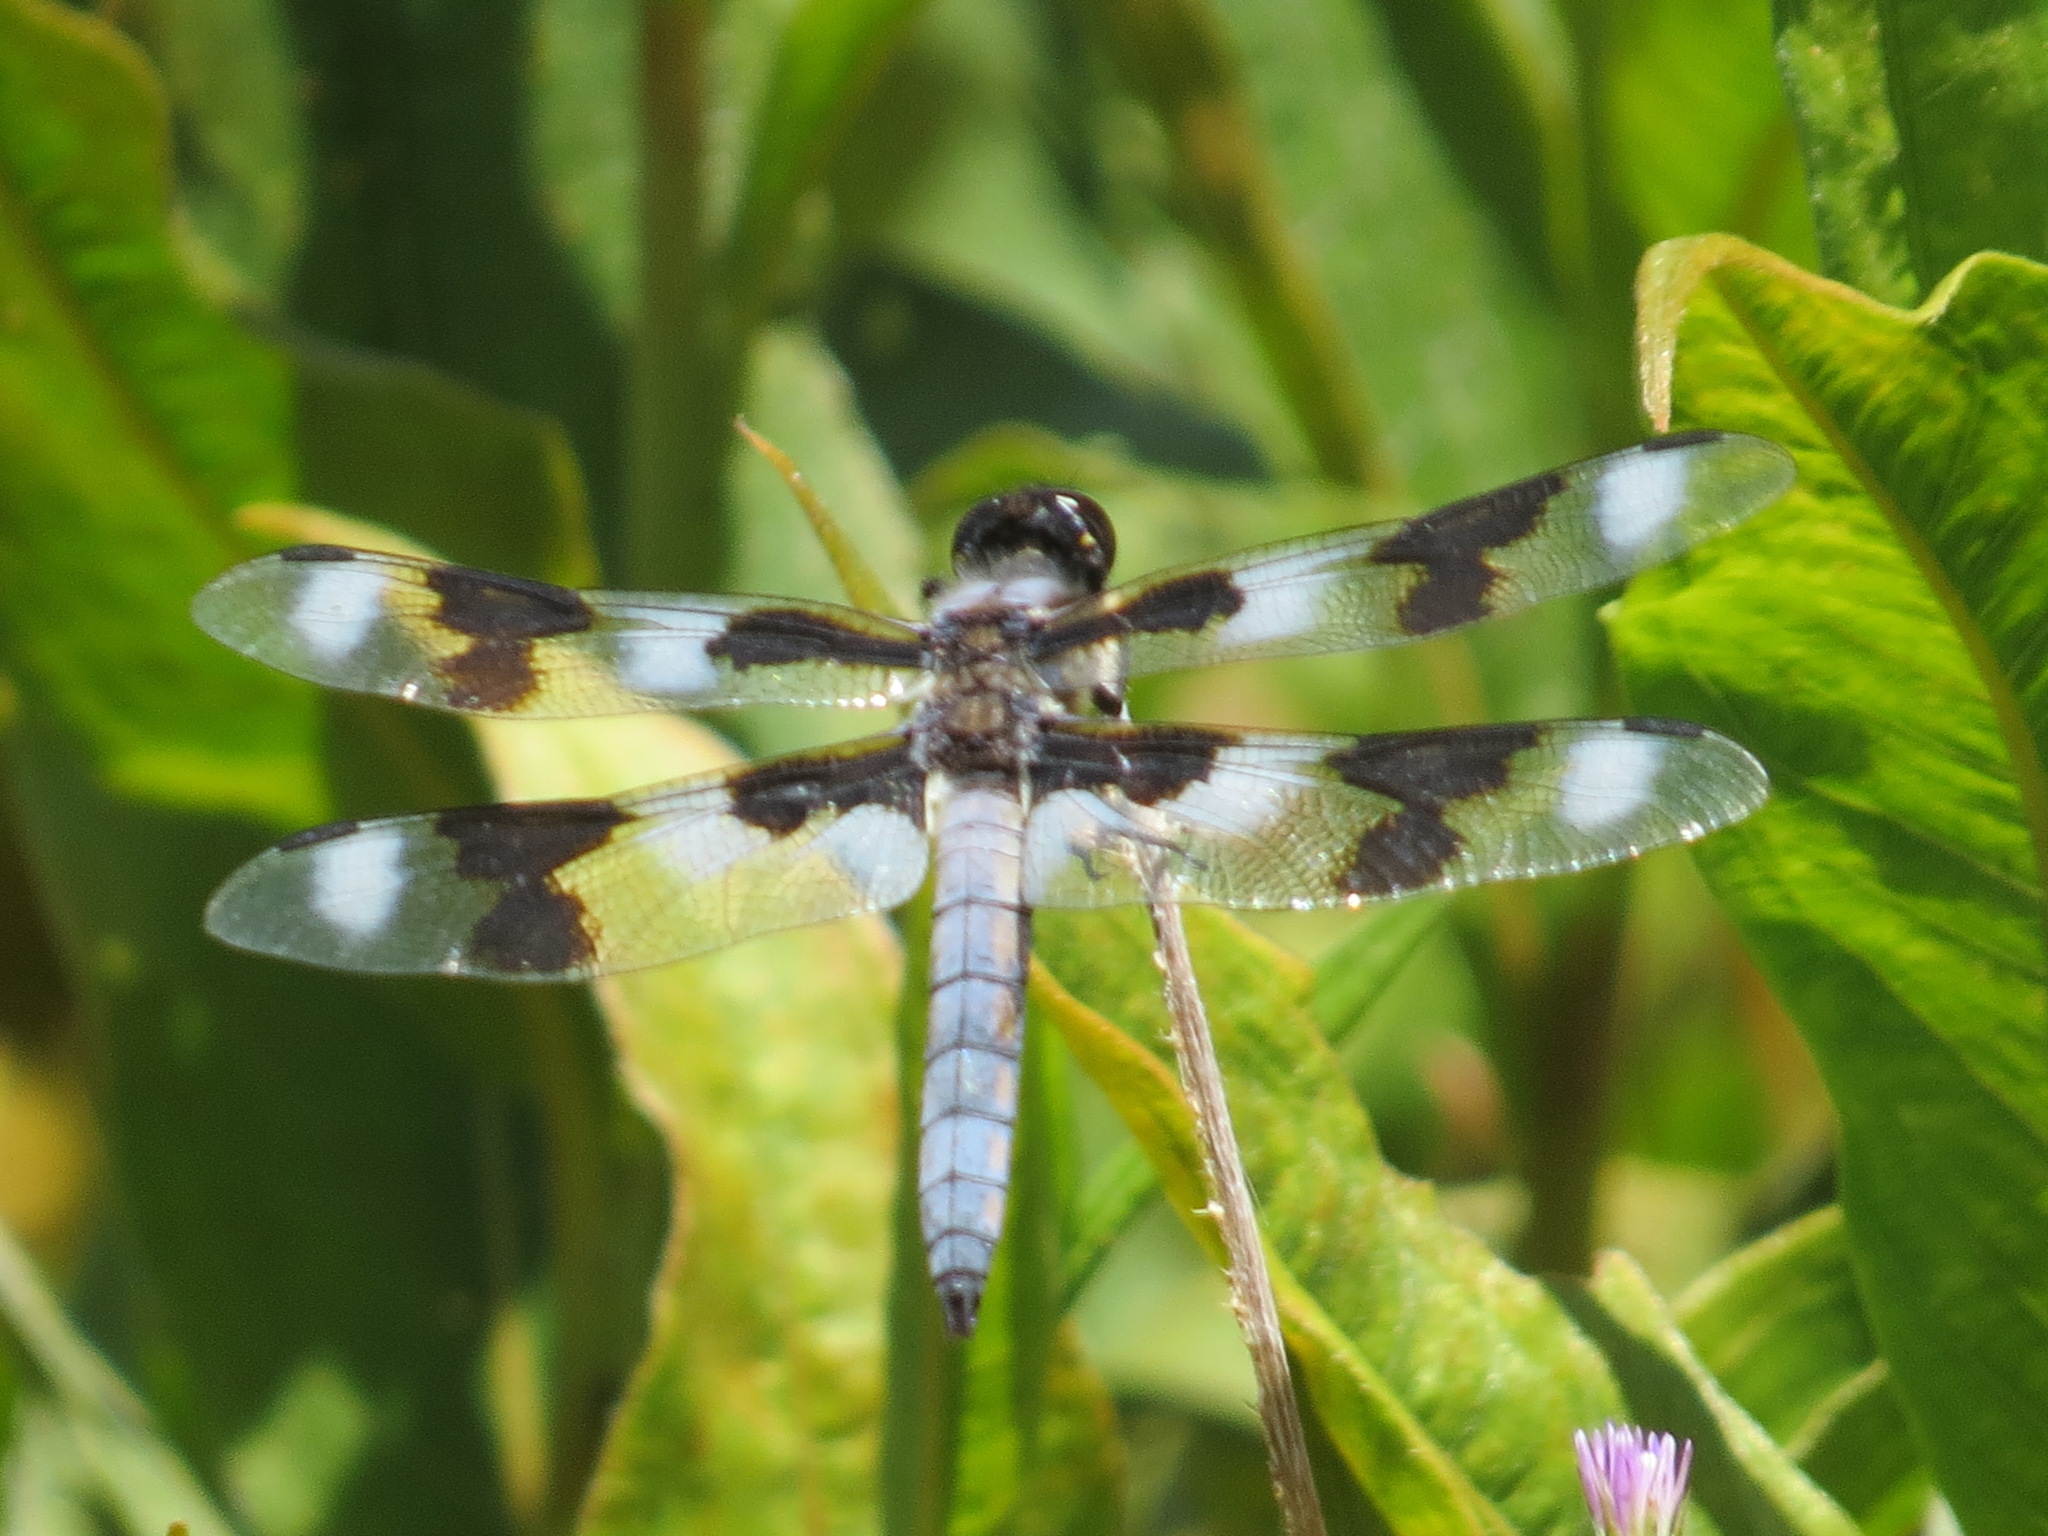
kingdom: Animalia
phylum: Arthropoda
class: Insecta
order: Odonata
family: Libellulidae
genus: Libellula
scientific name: Libellula forensis
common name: Eight-spotted skimmer
